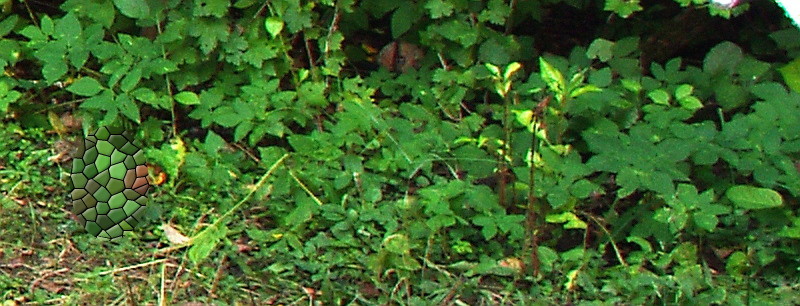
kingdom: Plantae
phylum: Tracheophyta
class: Magnoliopsida
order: Apiales
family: Apiaceae
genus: Aegopodium
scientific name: Aegopodium podagraria
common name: Ground-elder
